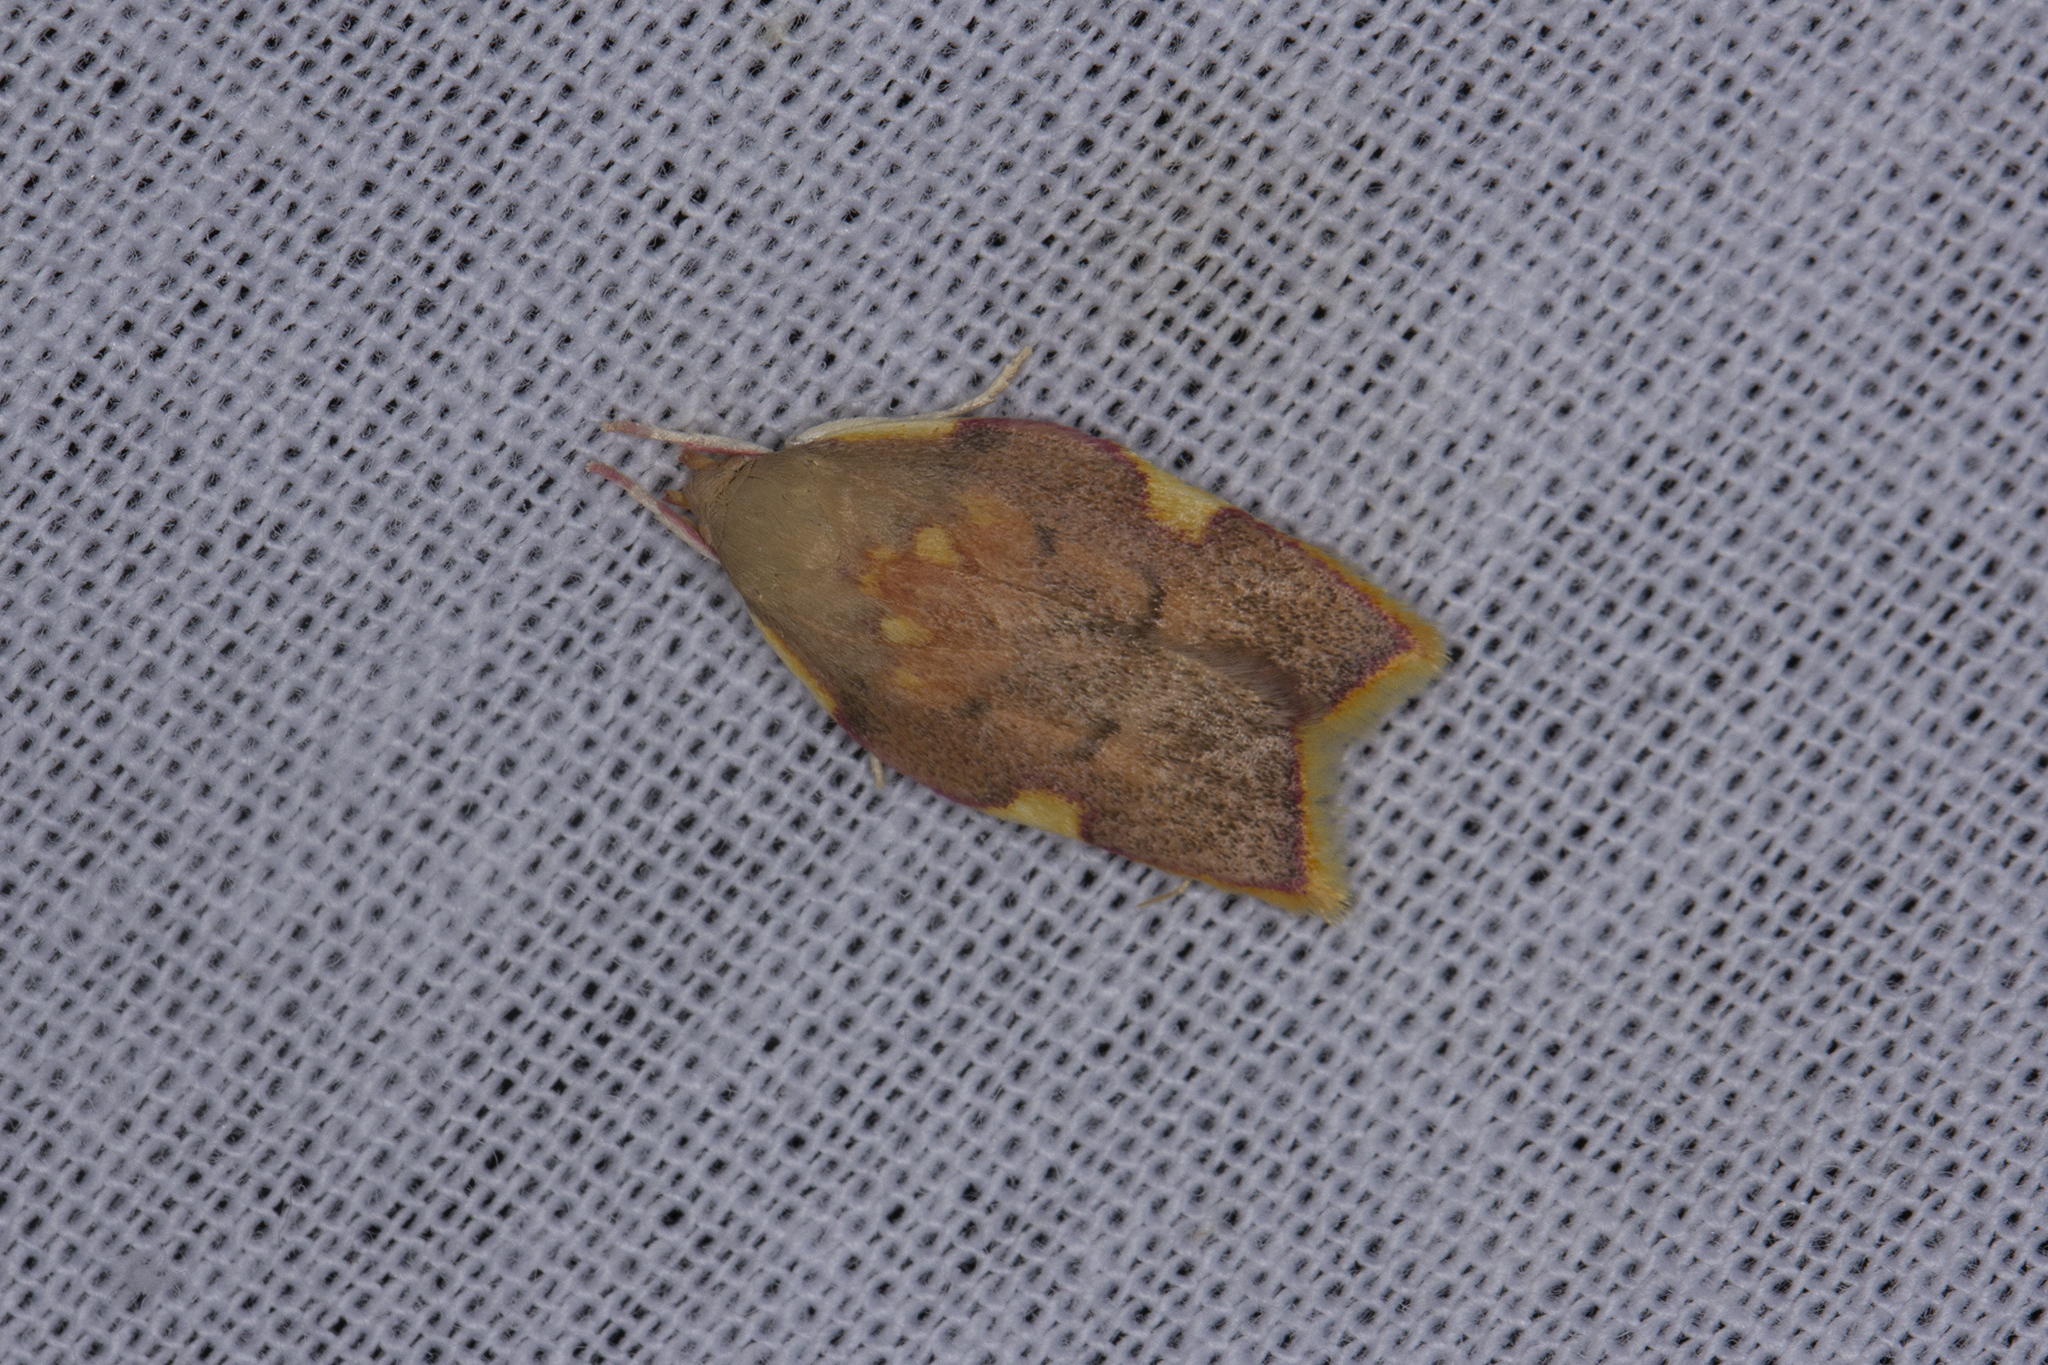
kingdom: Animalia
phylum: Arthropoda
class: Insecta
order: Lepidoptera
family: Peleopodidae
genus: Carcina
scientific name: Carcina quercana
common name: Moth
